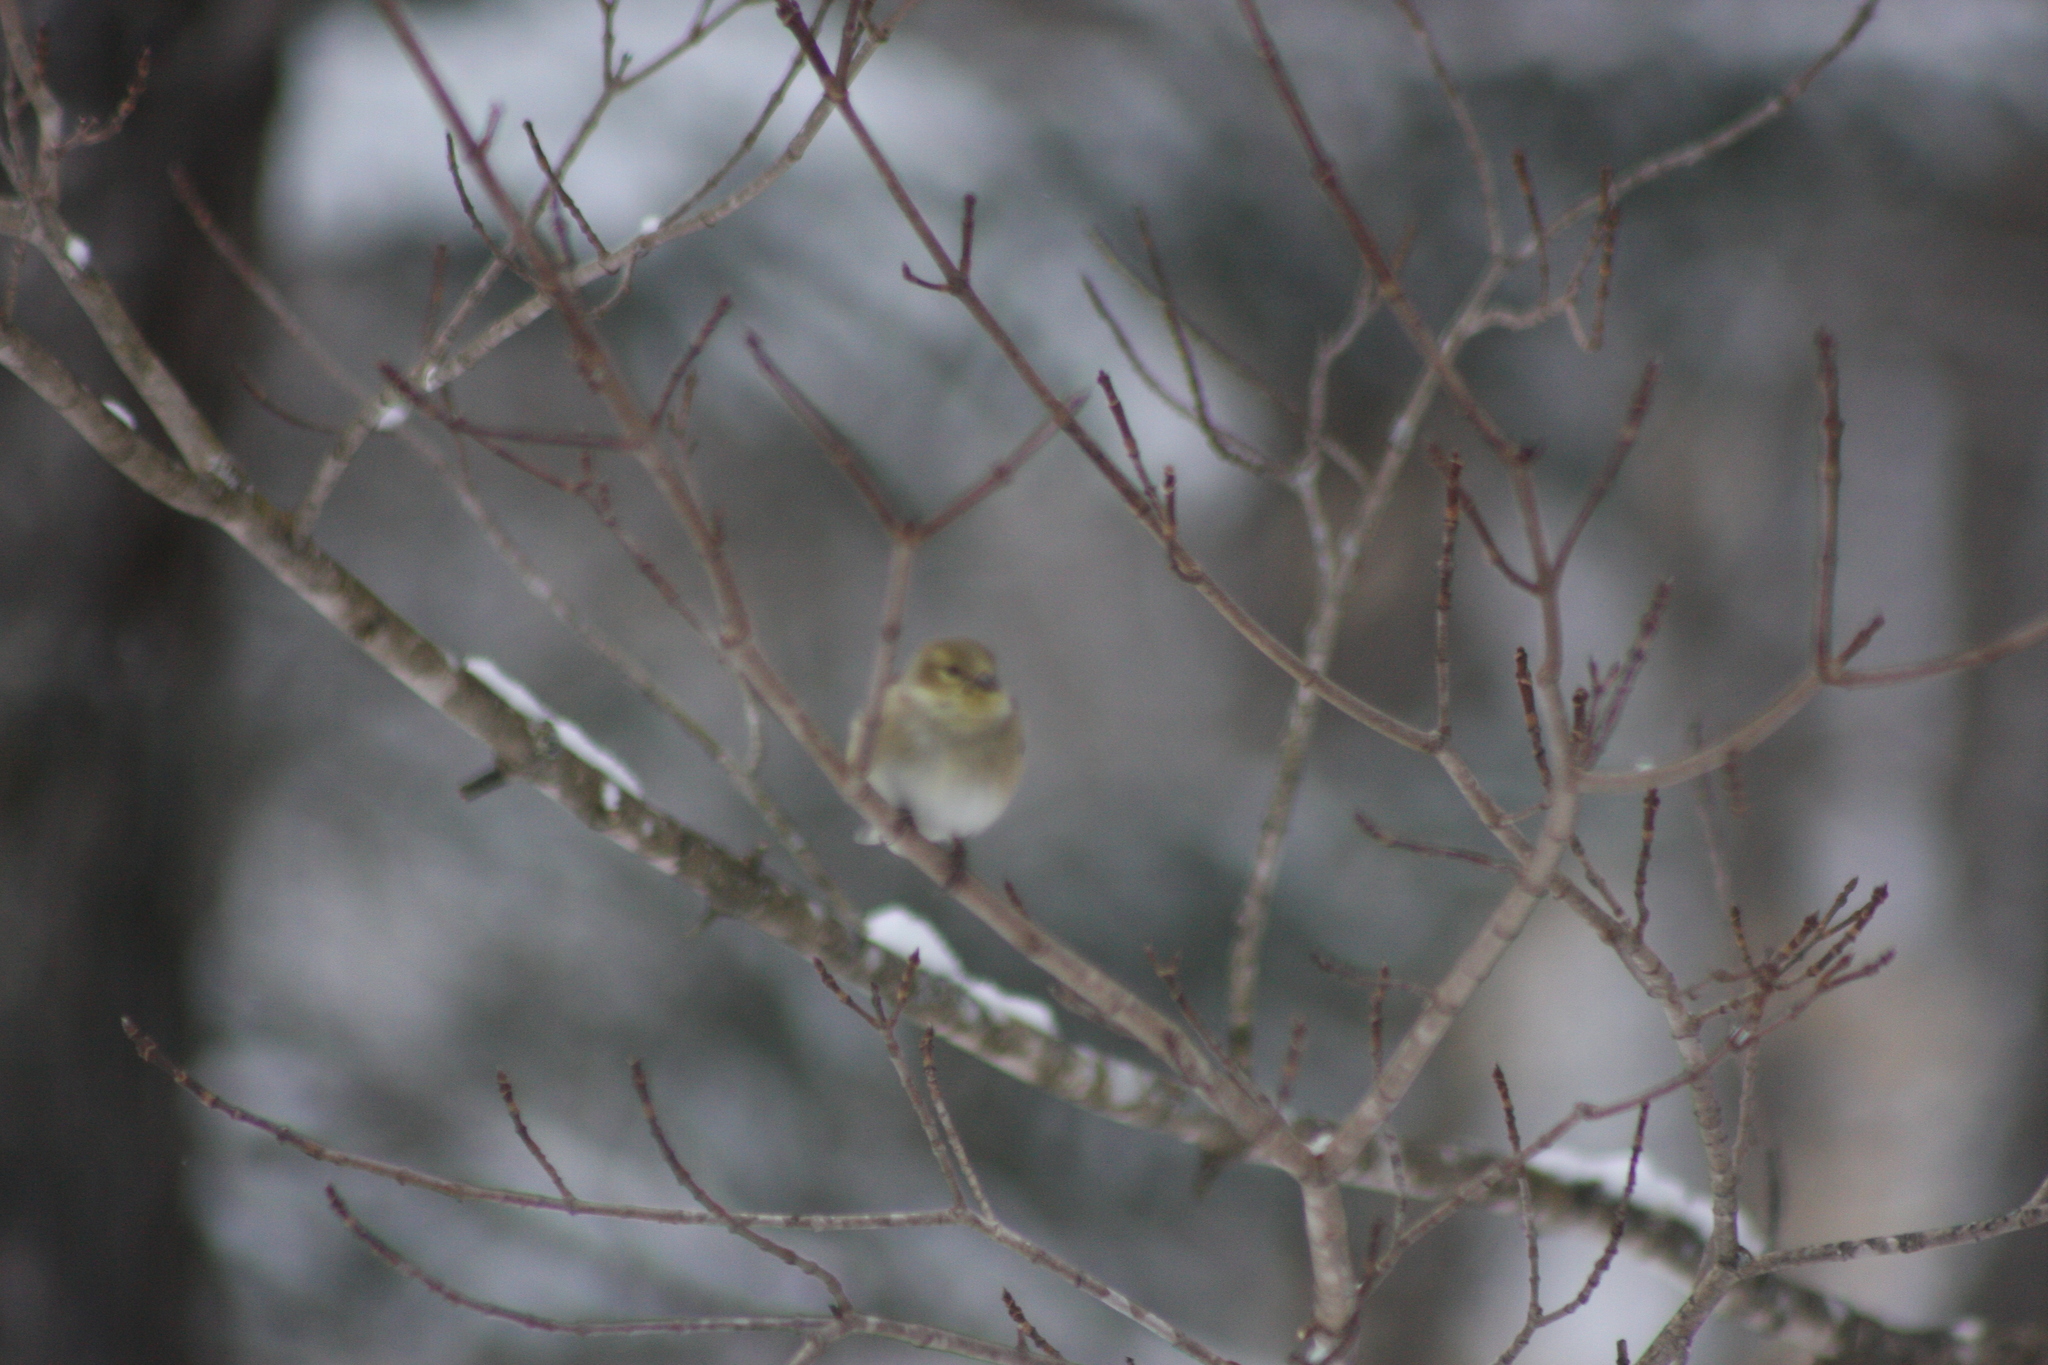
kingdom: Animalia
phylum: Chordata
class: Aves
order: Passeriformes
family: Fringillidae
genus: Spinus
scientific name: Spinus tristis
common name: American goldfinch
